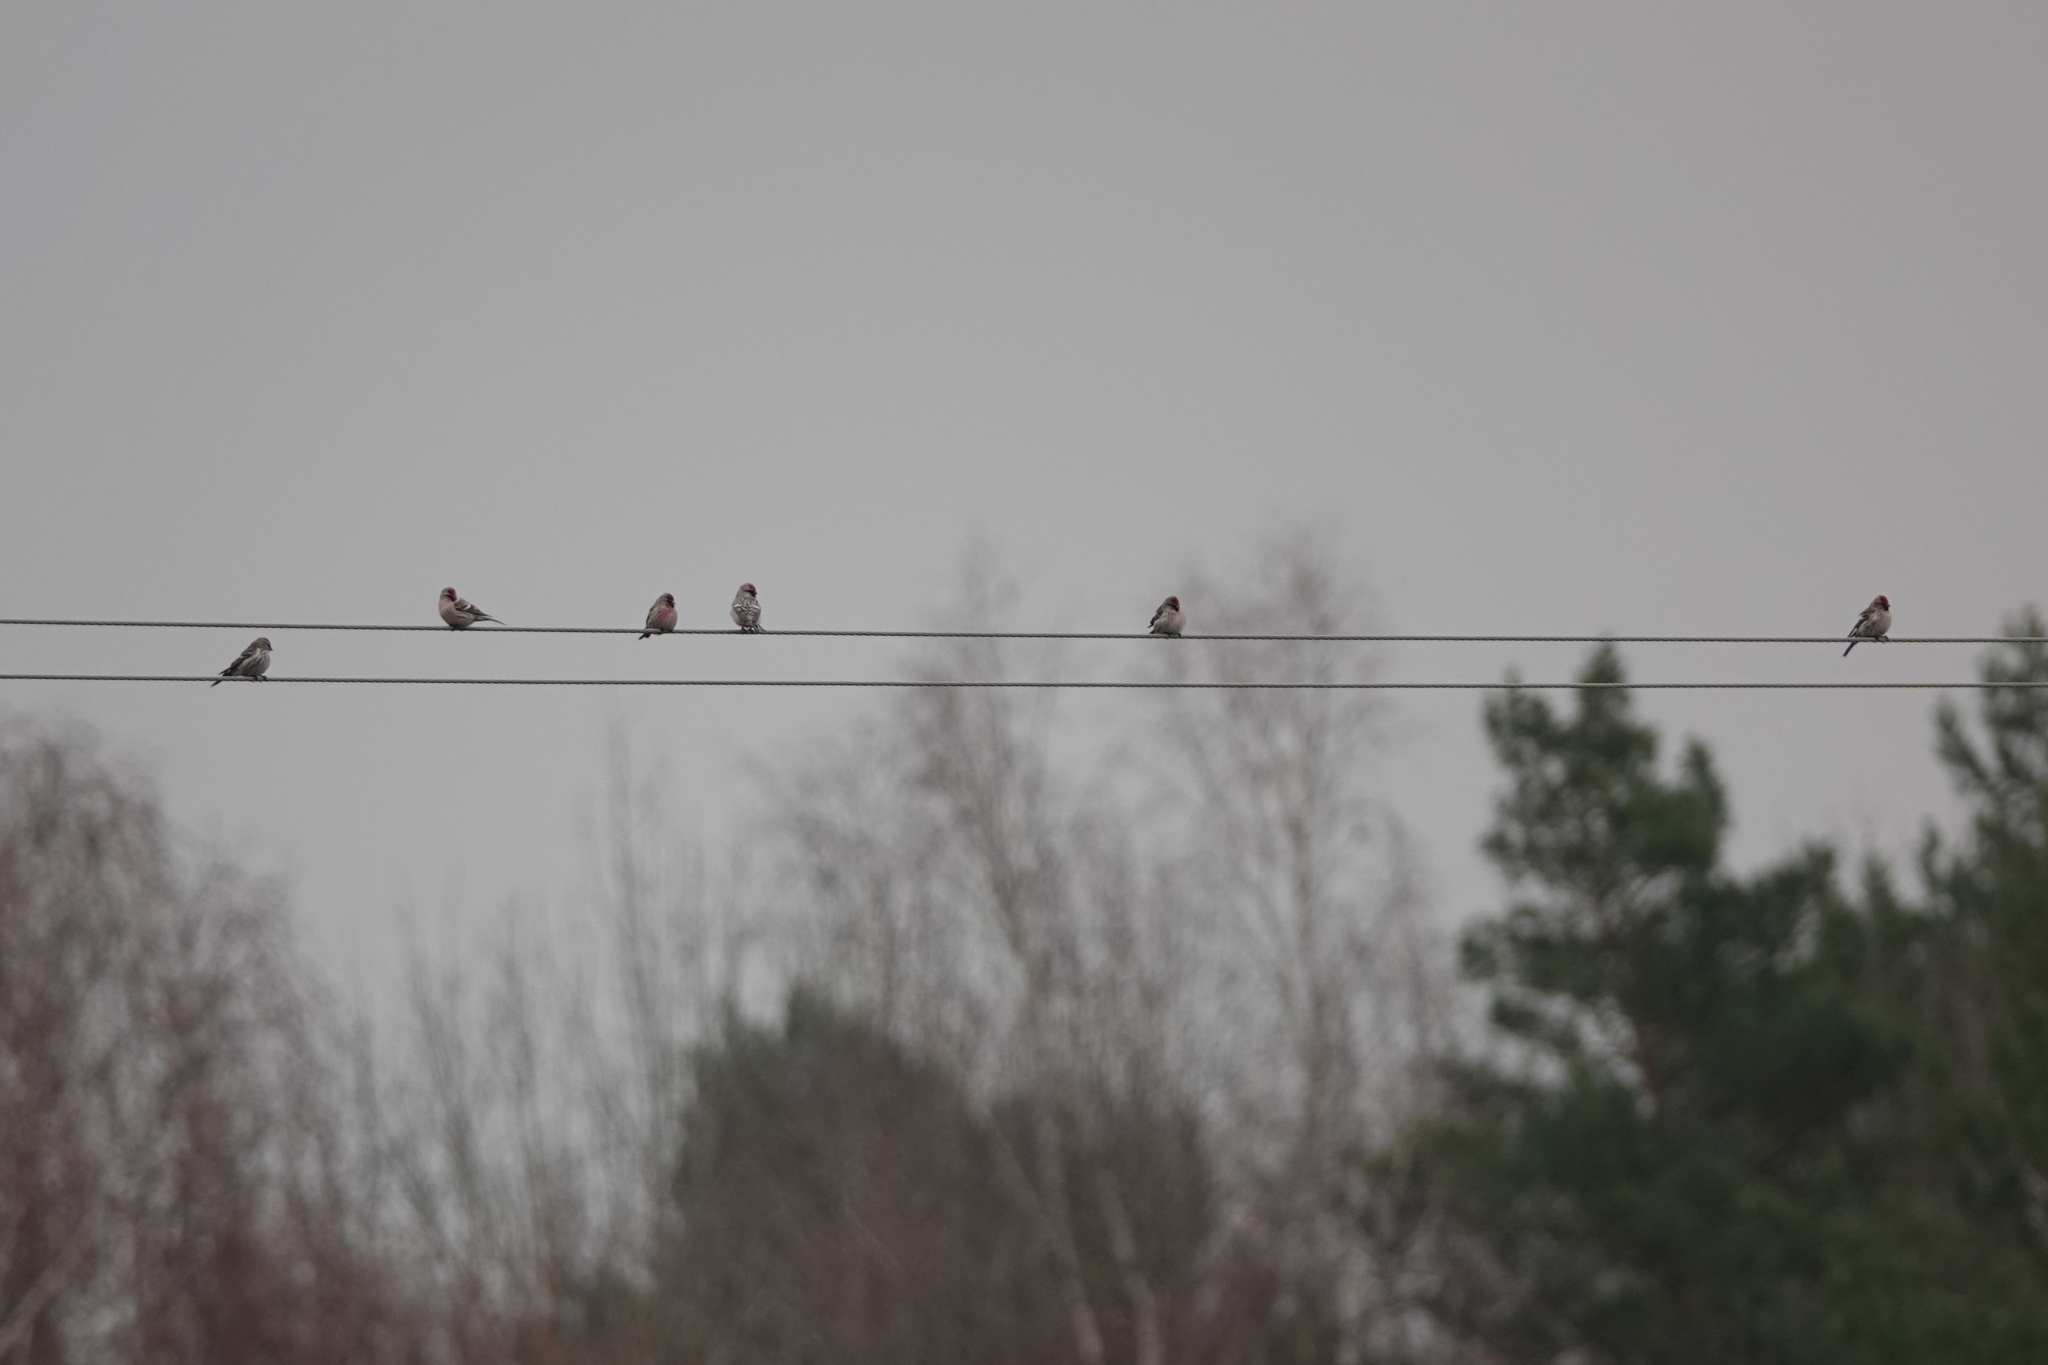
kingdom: Animalia
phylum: Chordata
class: Aves
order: Passeriformes
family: Fringillidae
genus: Acanthis
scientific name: Acanthis flammea
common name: Common redpoll
